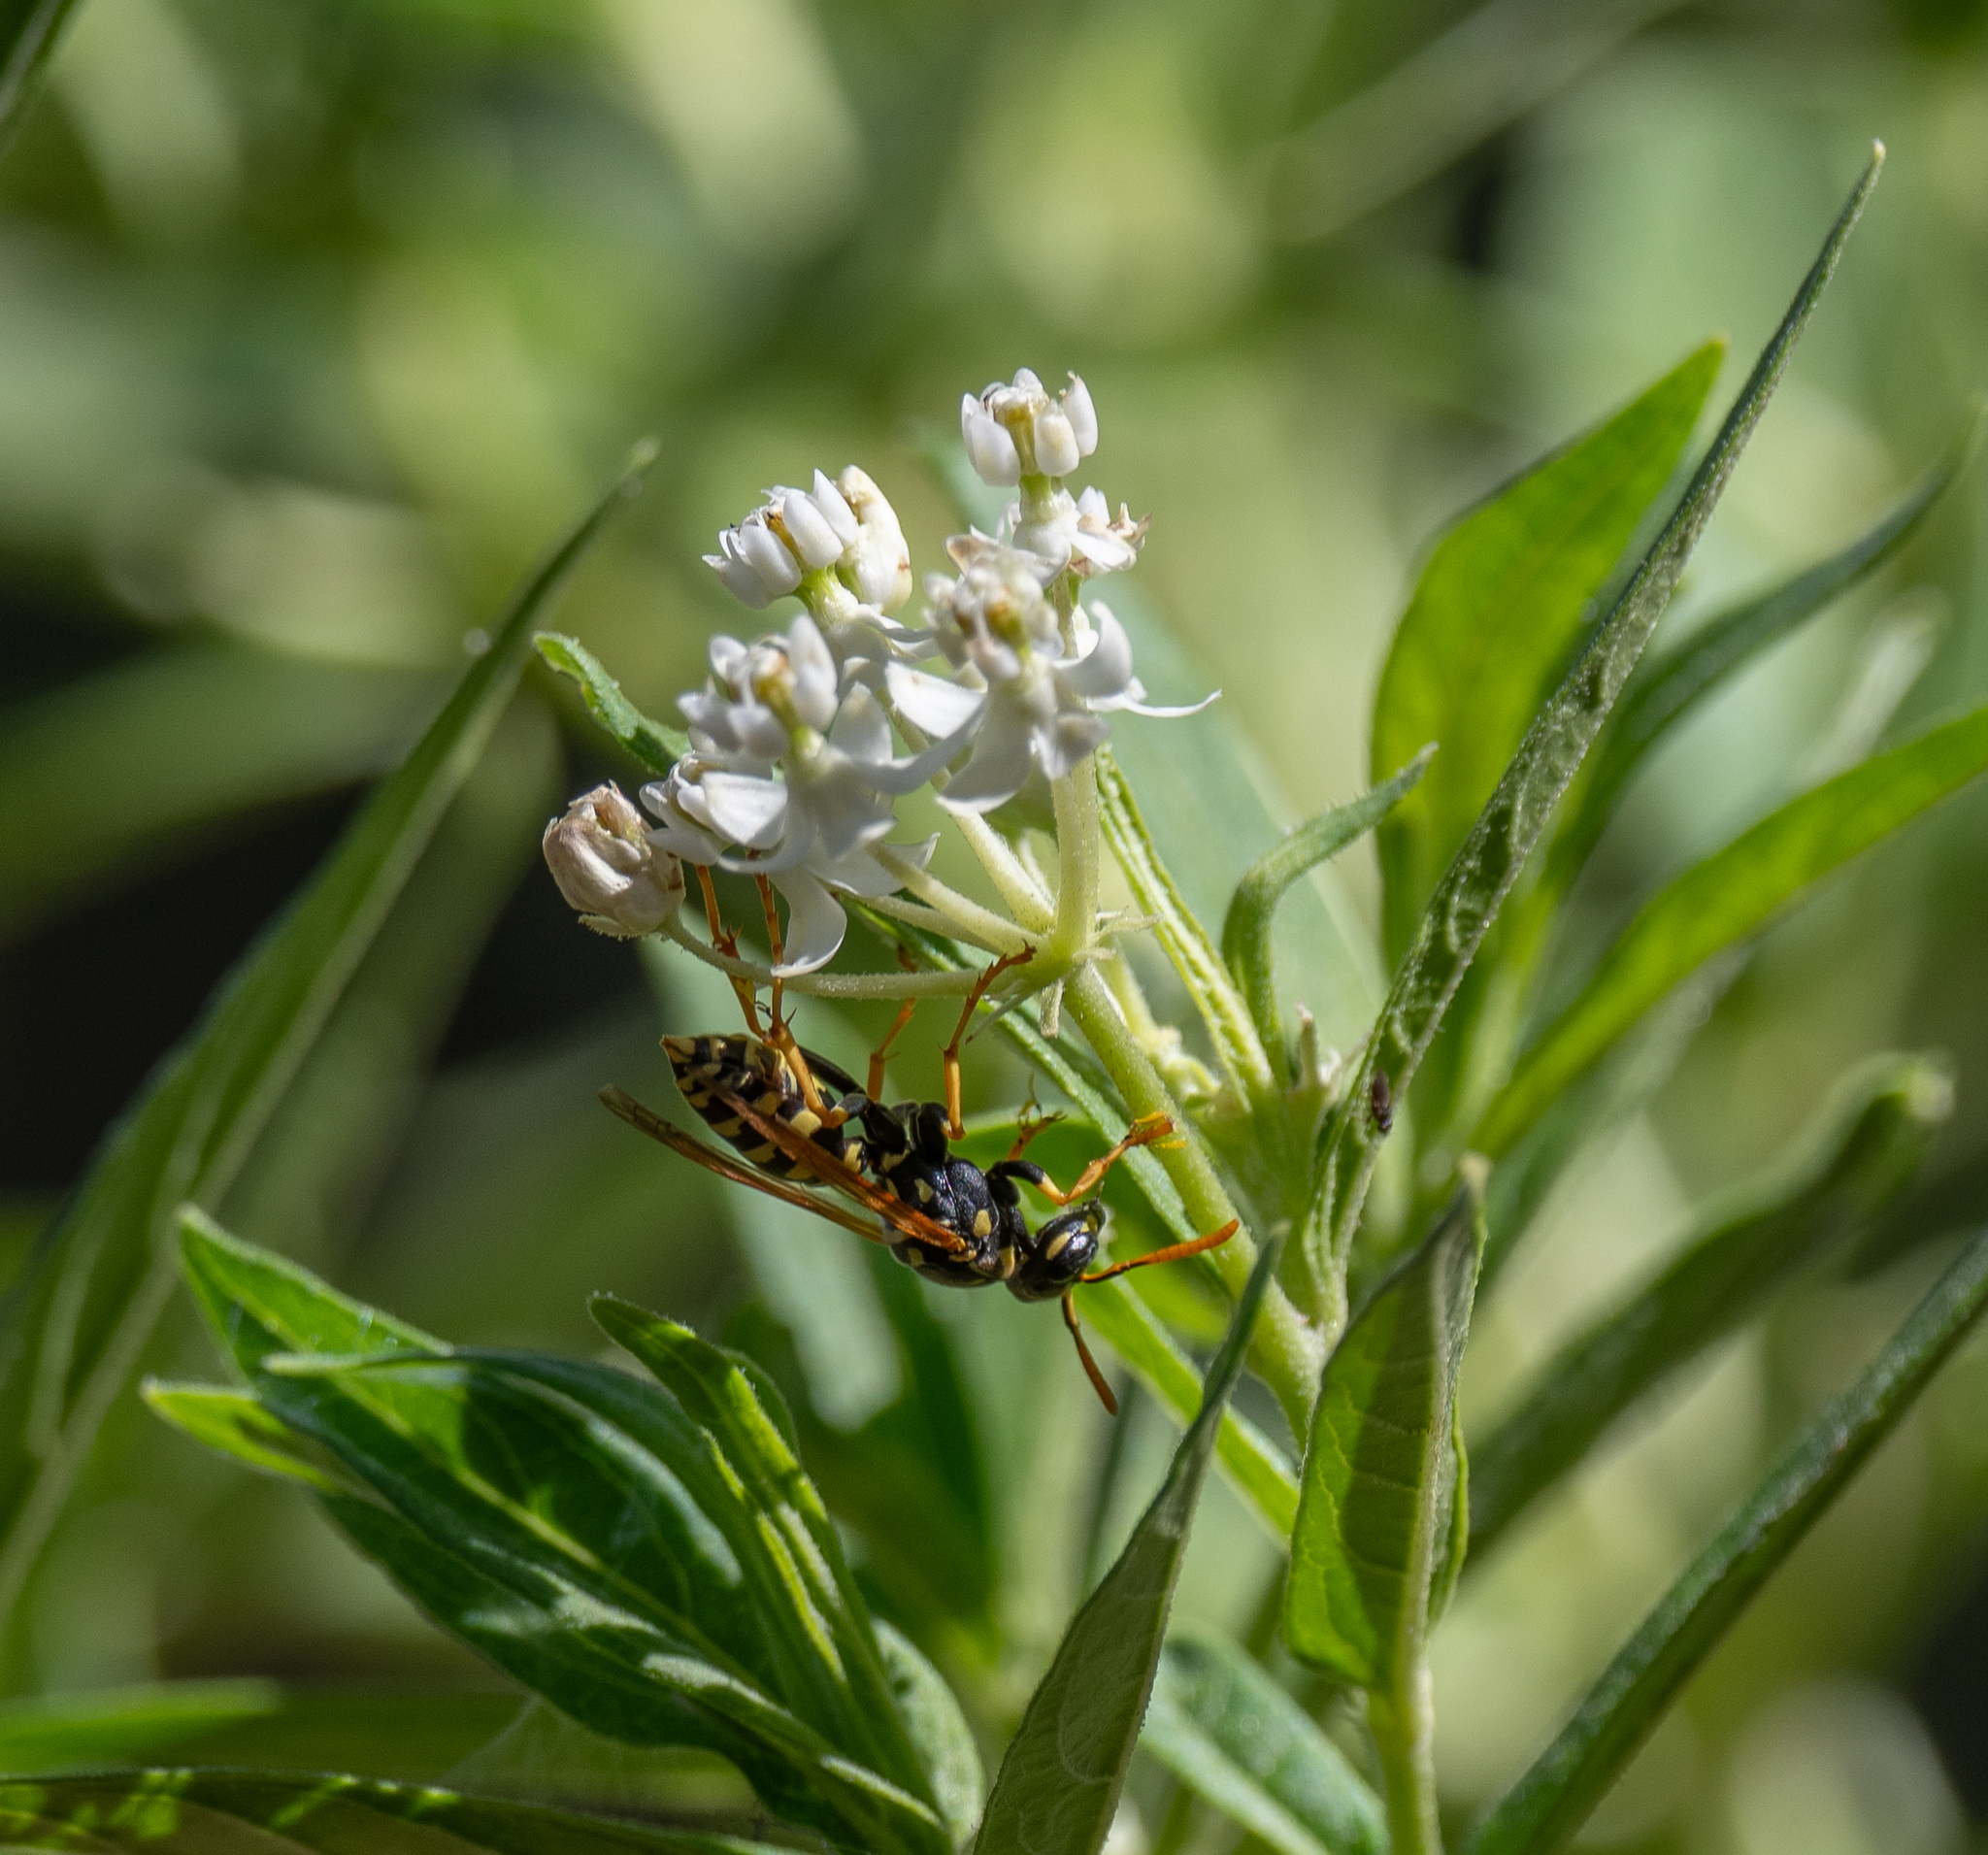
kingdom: Animalia
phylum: Arthropoda
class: Insecta
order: Hymenoptera
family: Eumenidae
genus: Polistes
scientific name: Polistes dominula
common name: Paper wasp
